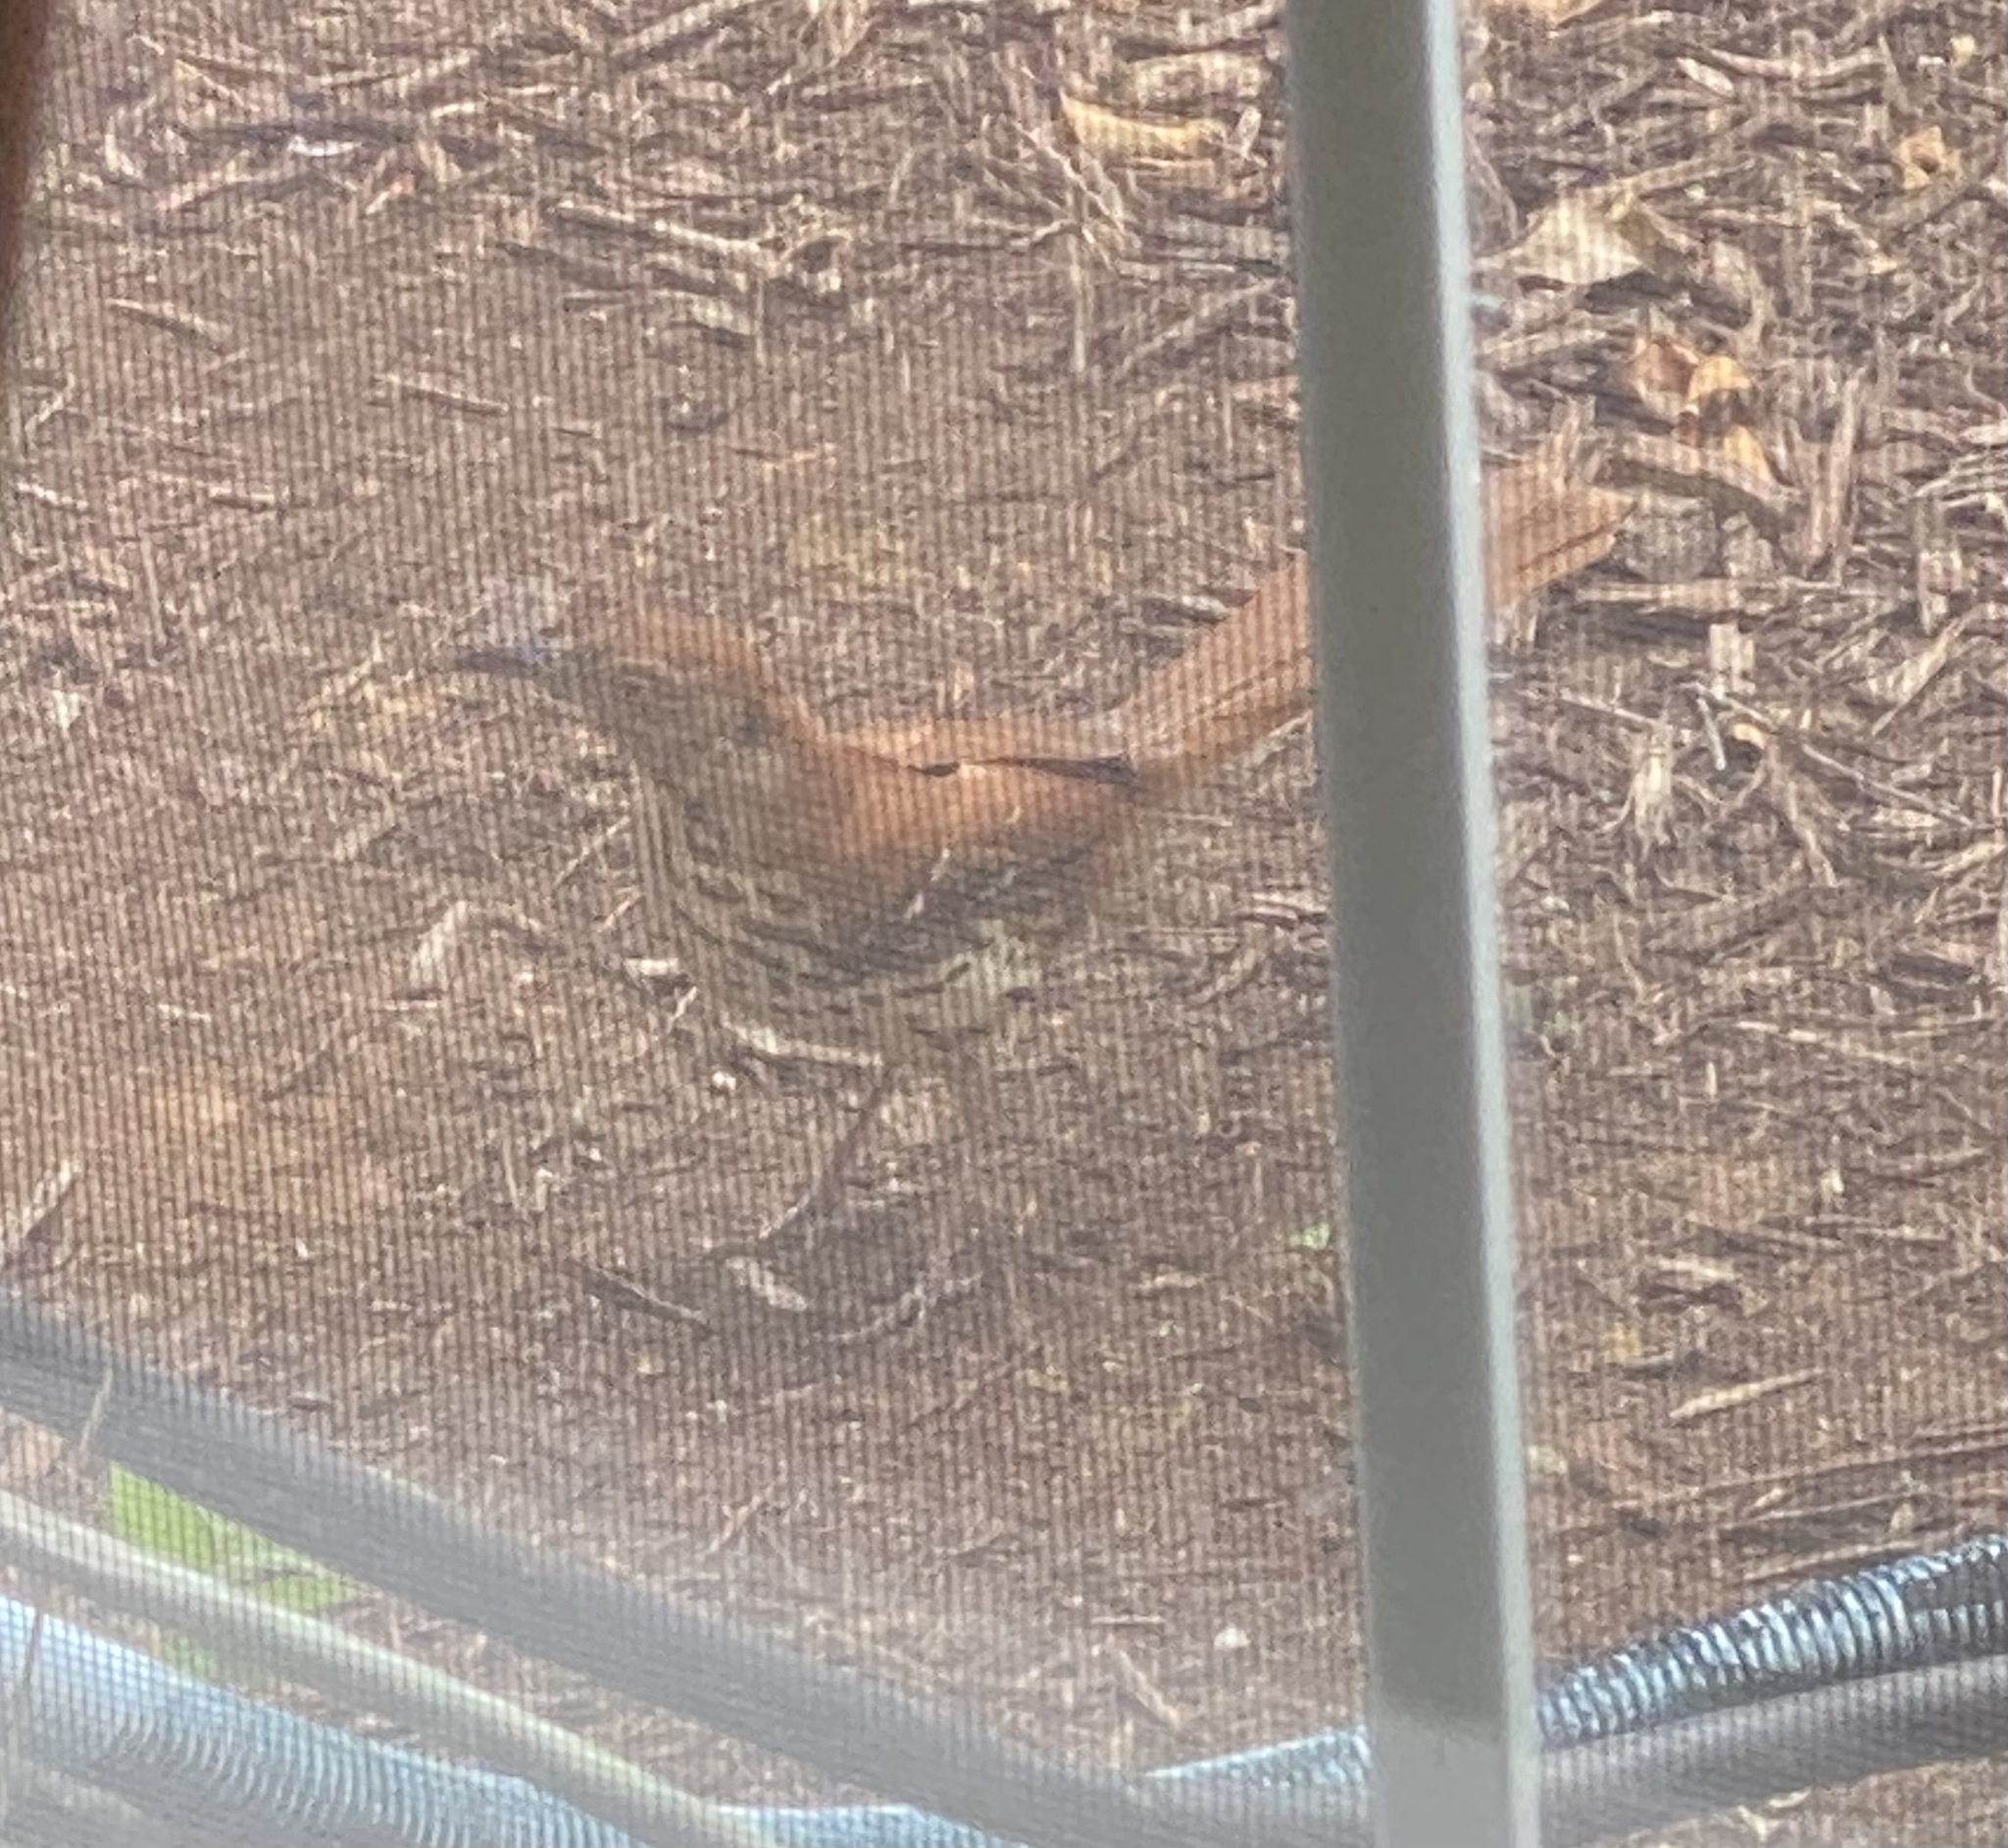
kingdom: Animalia
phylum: Chordata
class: Aves
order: Passeriformes
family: Mimidae
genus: Toxostoma
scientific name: Toxostoma rufum
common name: Brown thrasher
